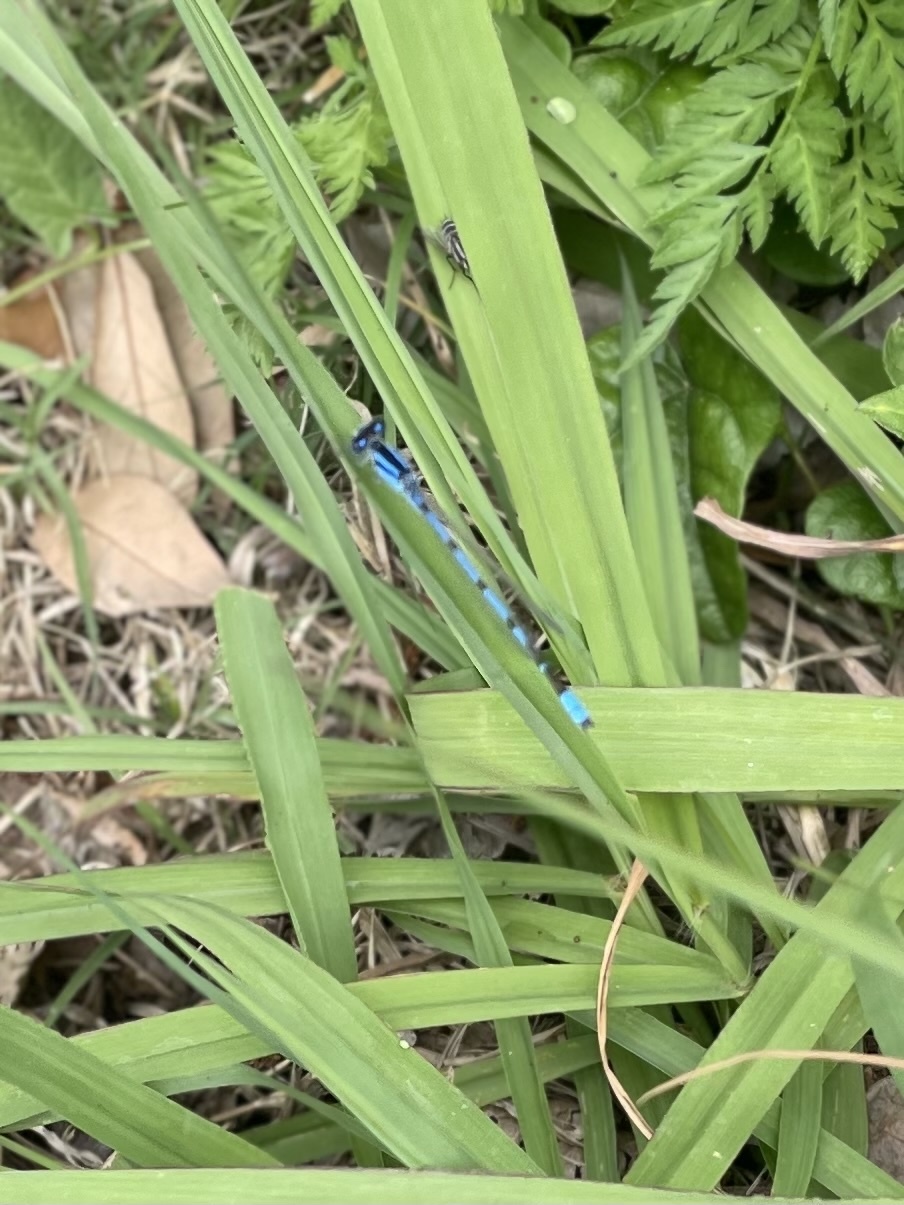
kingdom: Animalia
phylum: Arthropoda
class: Insecta
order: Odonata
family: Coenagrionidae
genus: Enallagma
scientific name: Enallagma civile
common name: Damselfly
